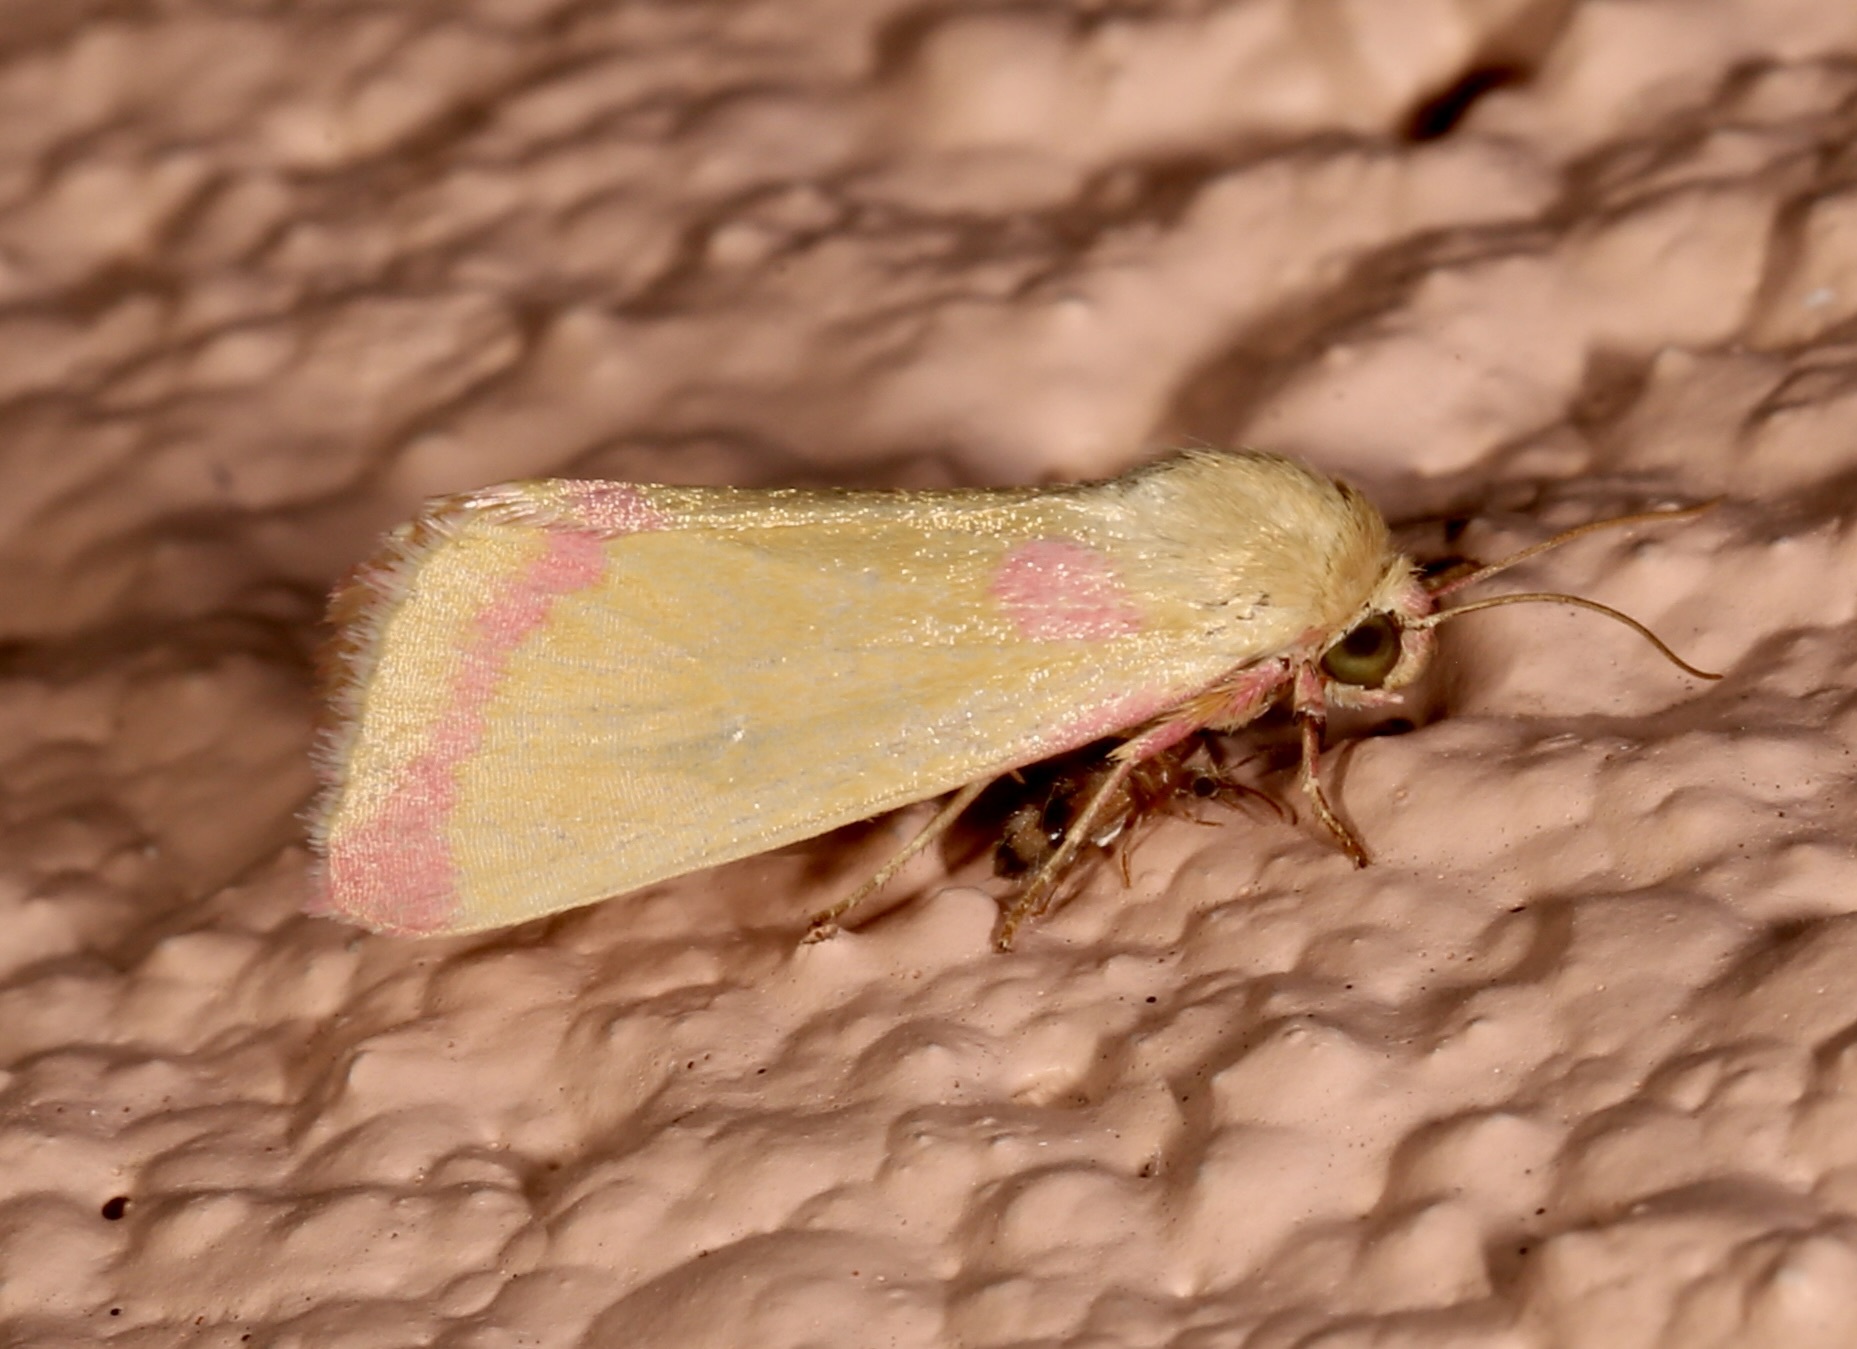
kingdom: Animalia
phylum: Arthropoda
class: Insecta
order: Lepidoptera
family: Noctuidae
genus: Heliocheilus
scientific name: Heliocheilus toralis
